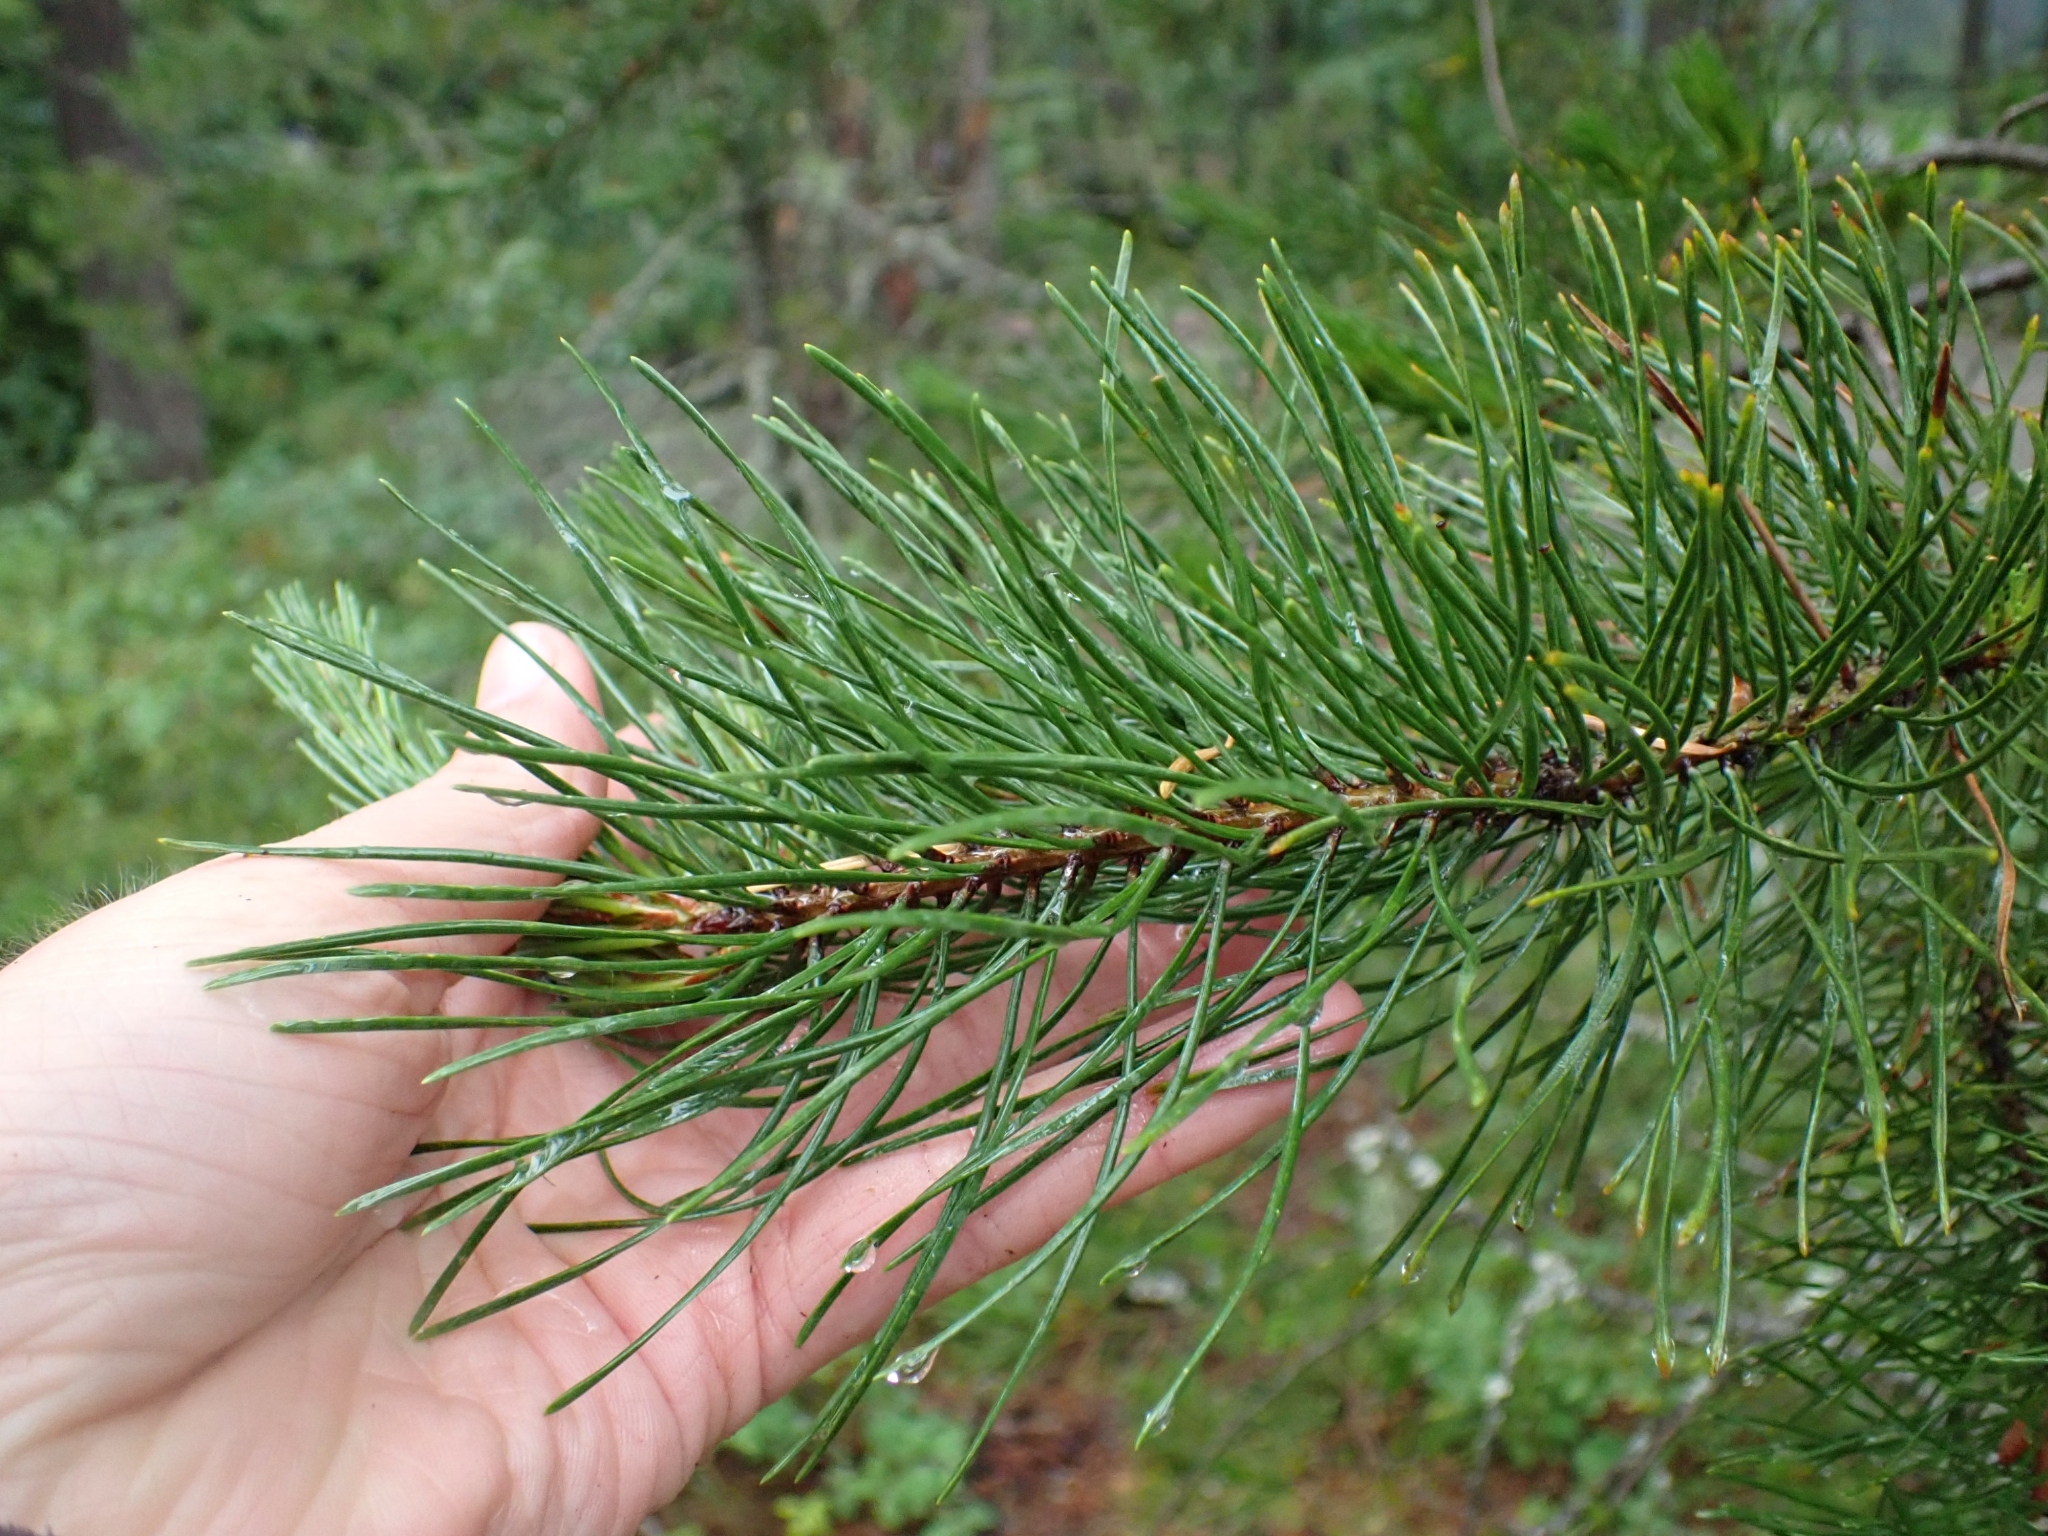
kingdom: Plantae
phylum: Tracheophyta
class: Pinopsida
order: Pinales
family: Pinaceae
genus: Pinus
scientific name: Pinus contorta
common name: Lodgepole pine
